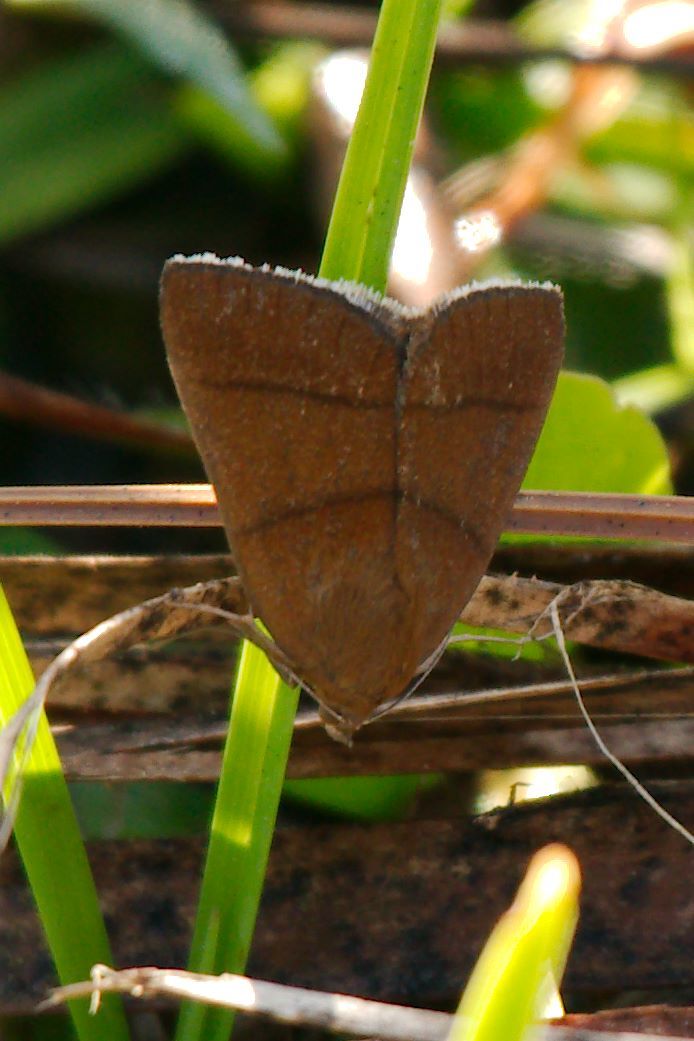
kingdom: Animalia
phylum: Arthropoda
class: Insecta
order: Lepidoptera
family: Erebidae
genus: Argyrostrotis
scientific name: Argyrostrotis quadrifilaris
